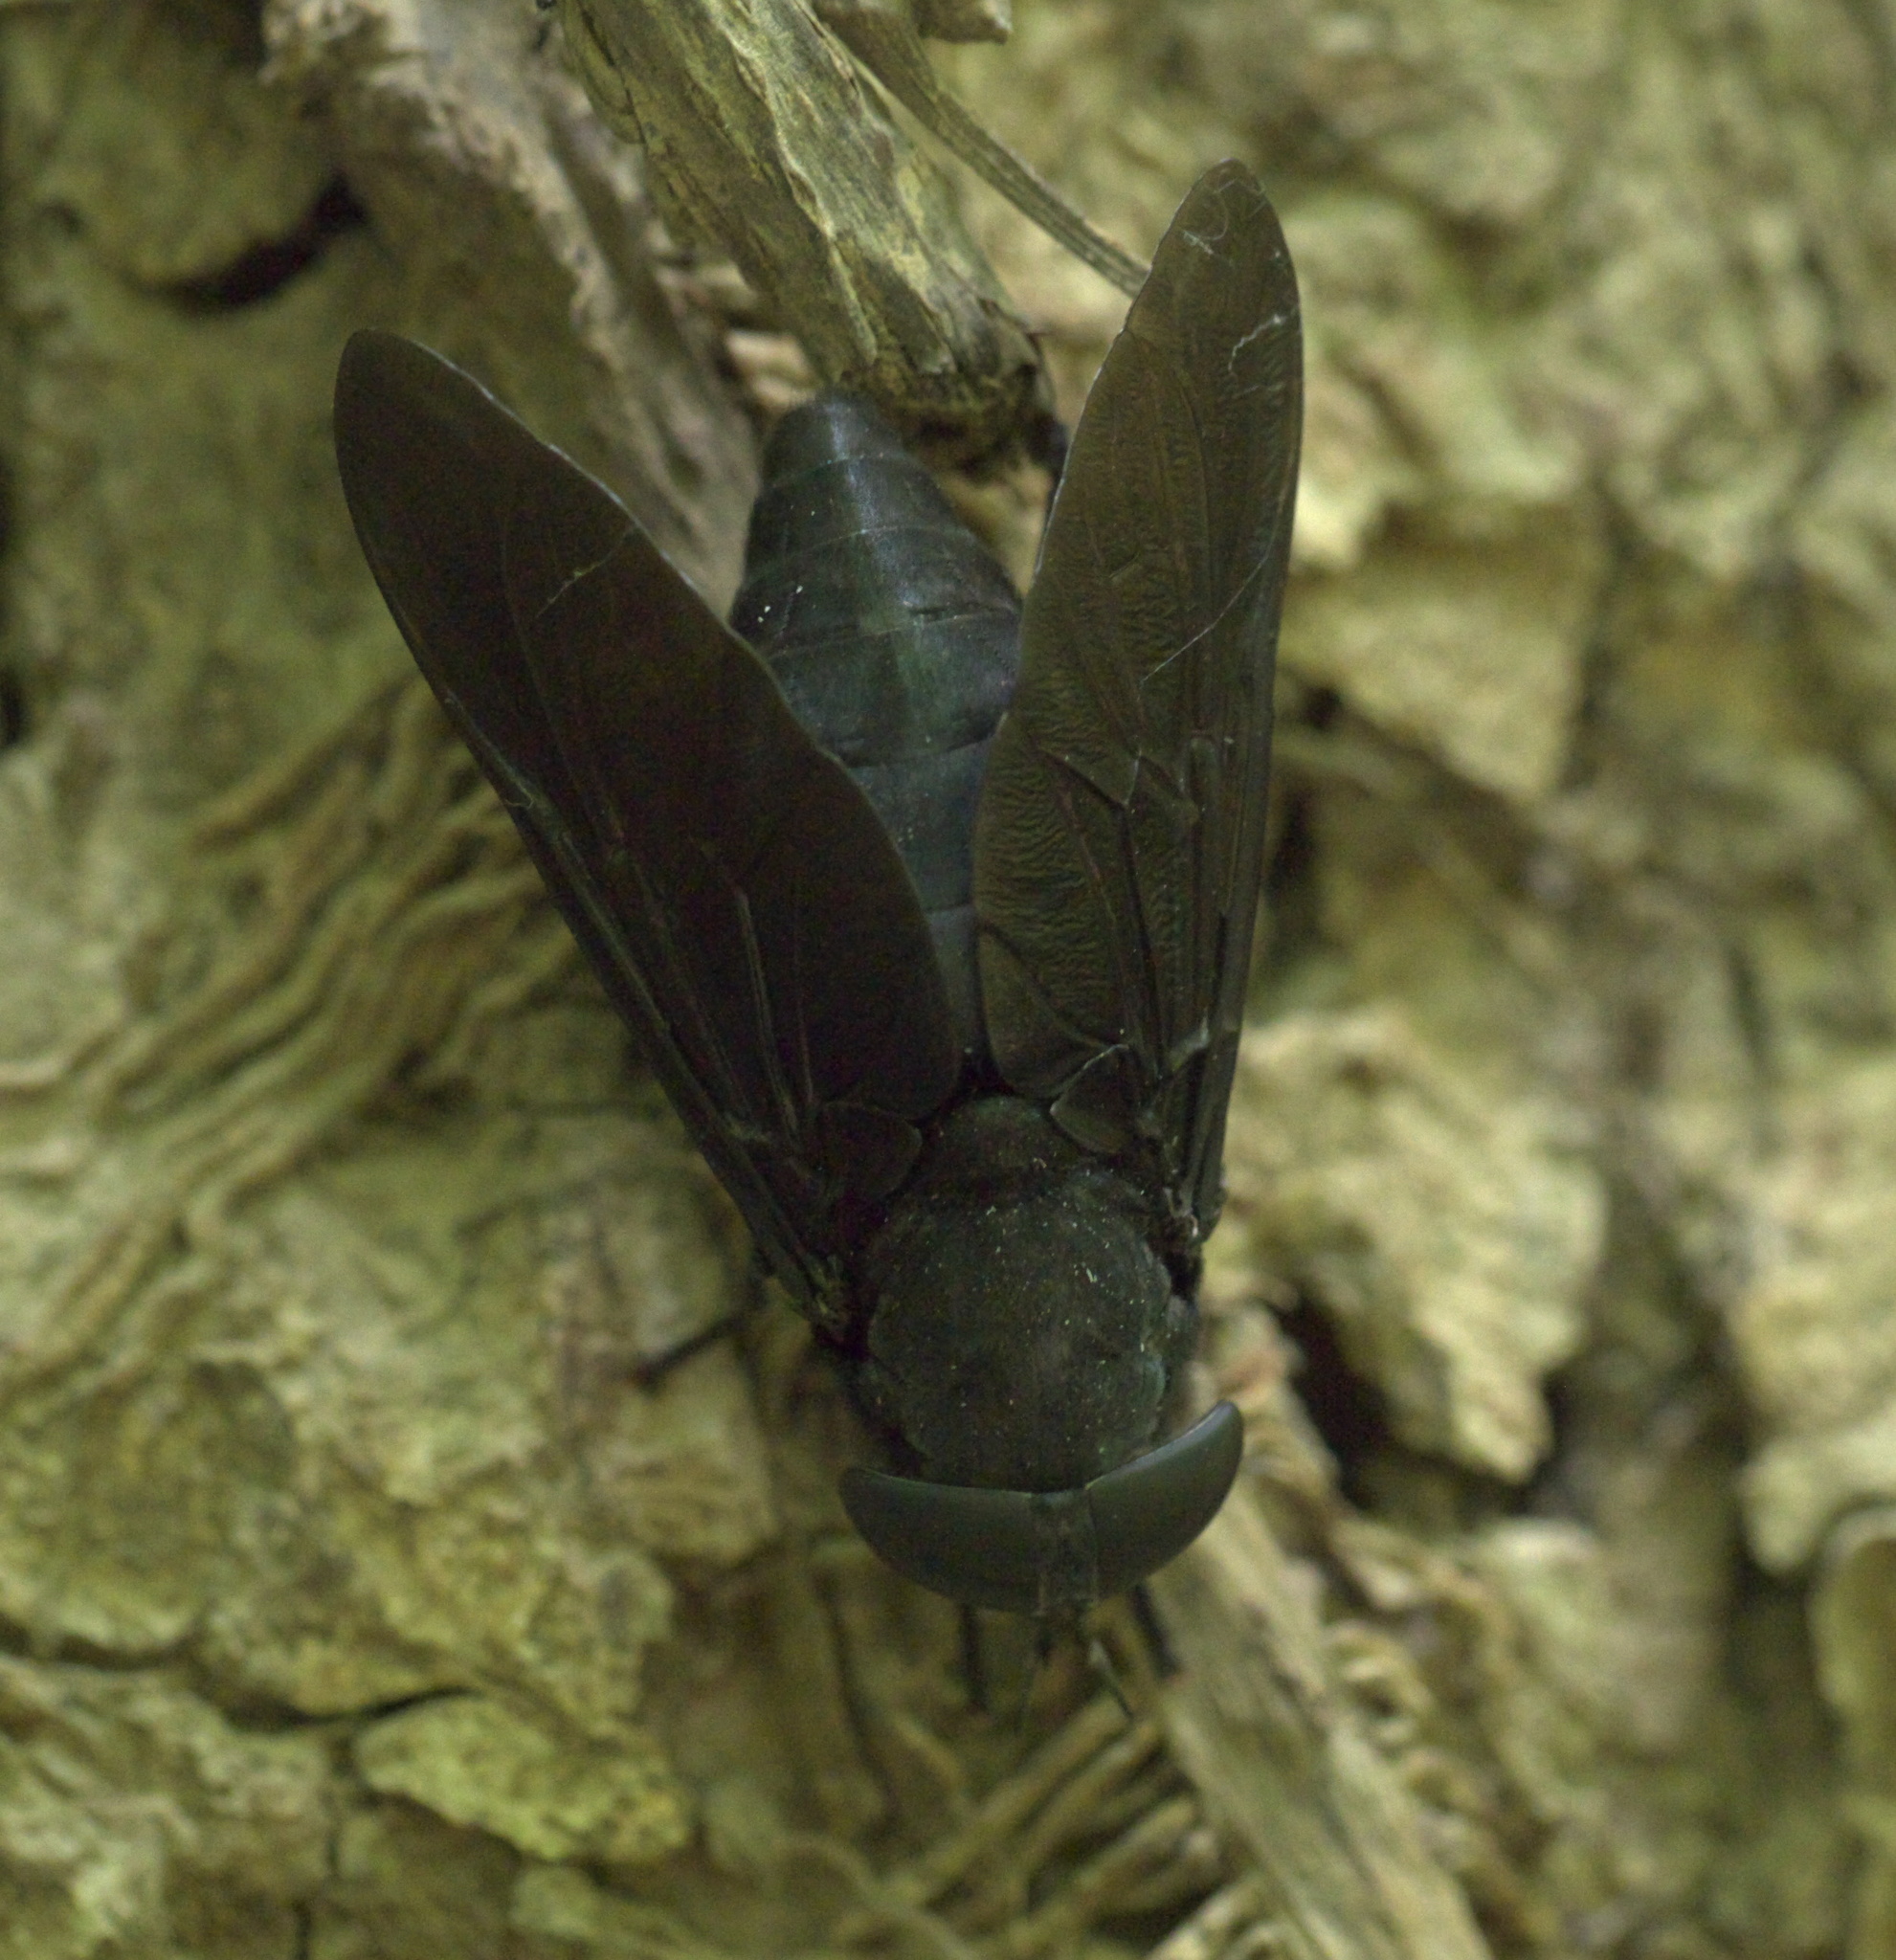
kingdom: Animalia
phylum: Arthropoda
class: Insecta
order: Diptera
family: Tabanidae
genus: Tabanus
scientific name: Tabanus atratus
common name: Black horse fly
